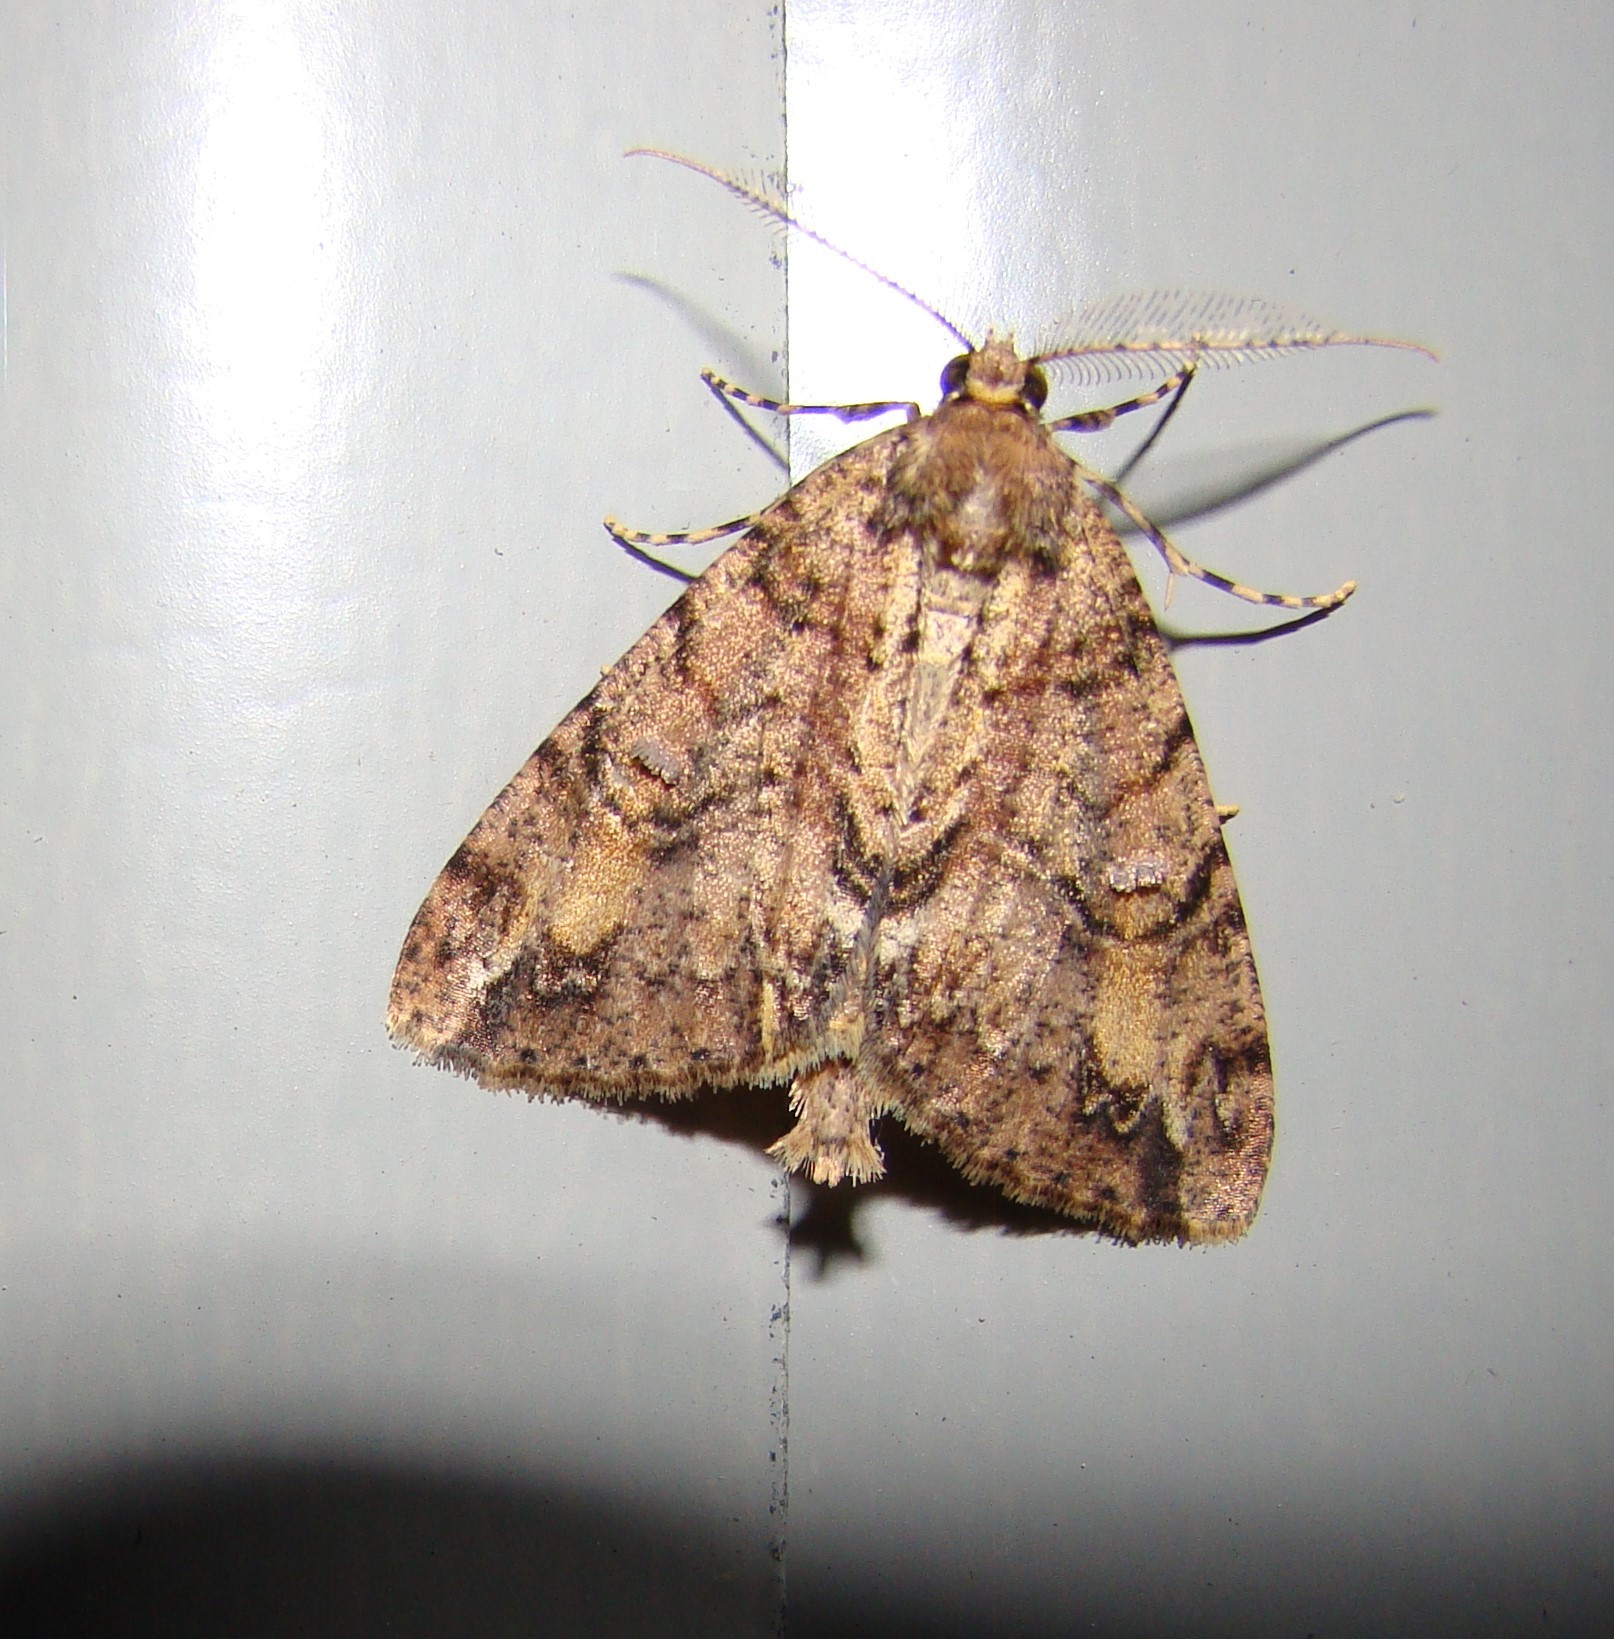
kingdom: Animalia
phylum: Arthropoda
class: Insecta
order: Lepidoptera
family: Geometridae
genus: Pseudocoremia
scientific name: Pseudocoremia suavis
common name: Common forest looper
